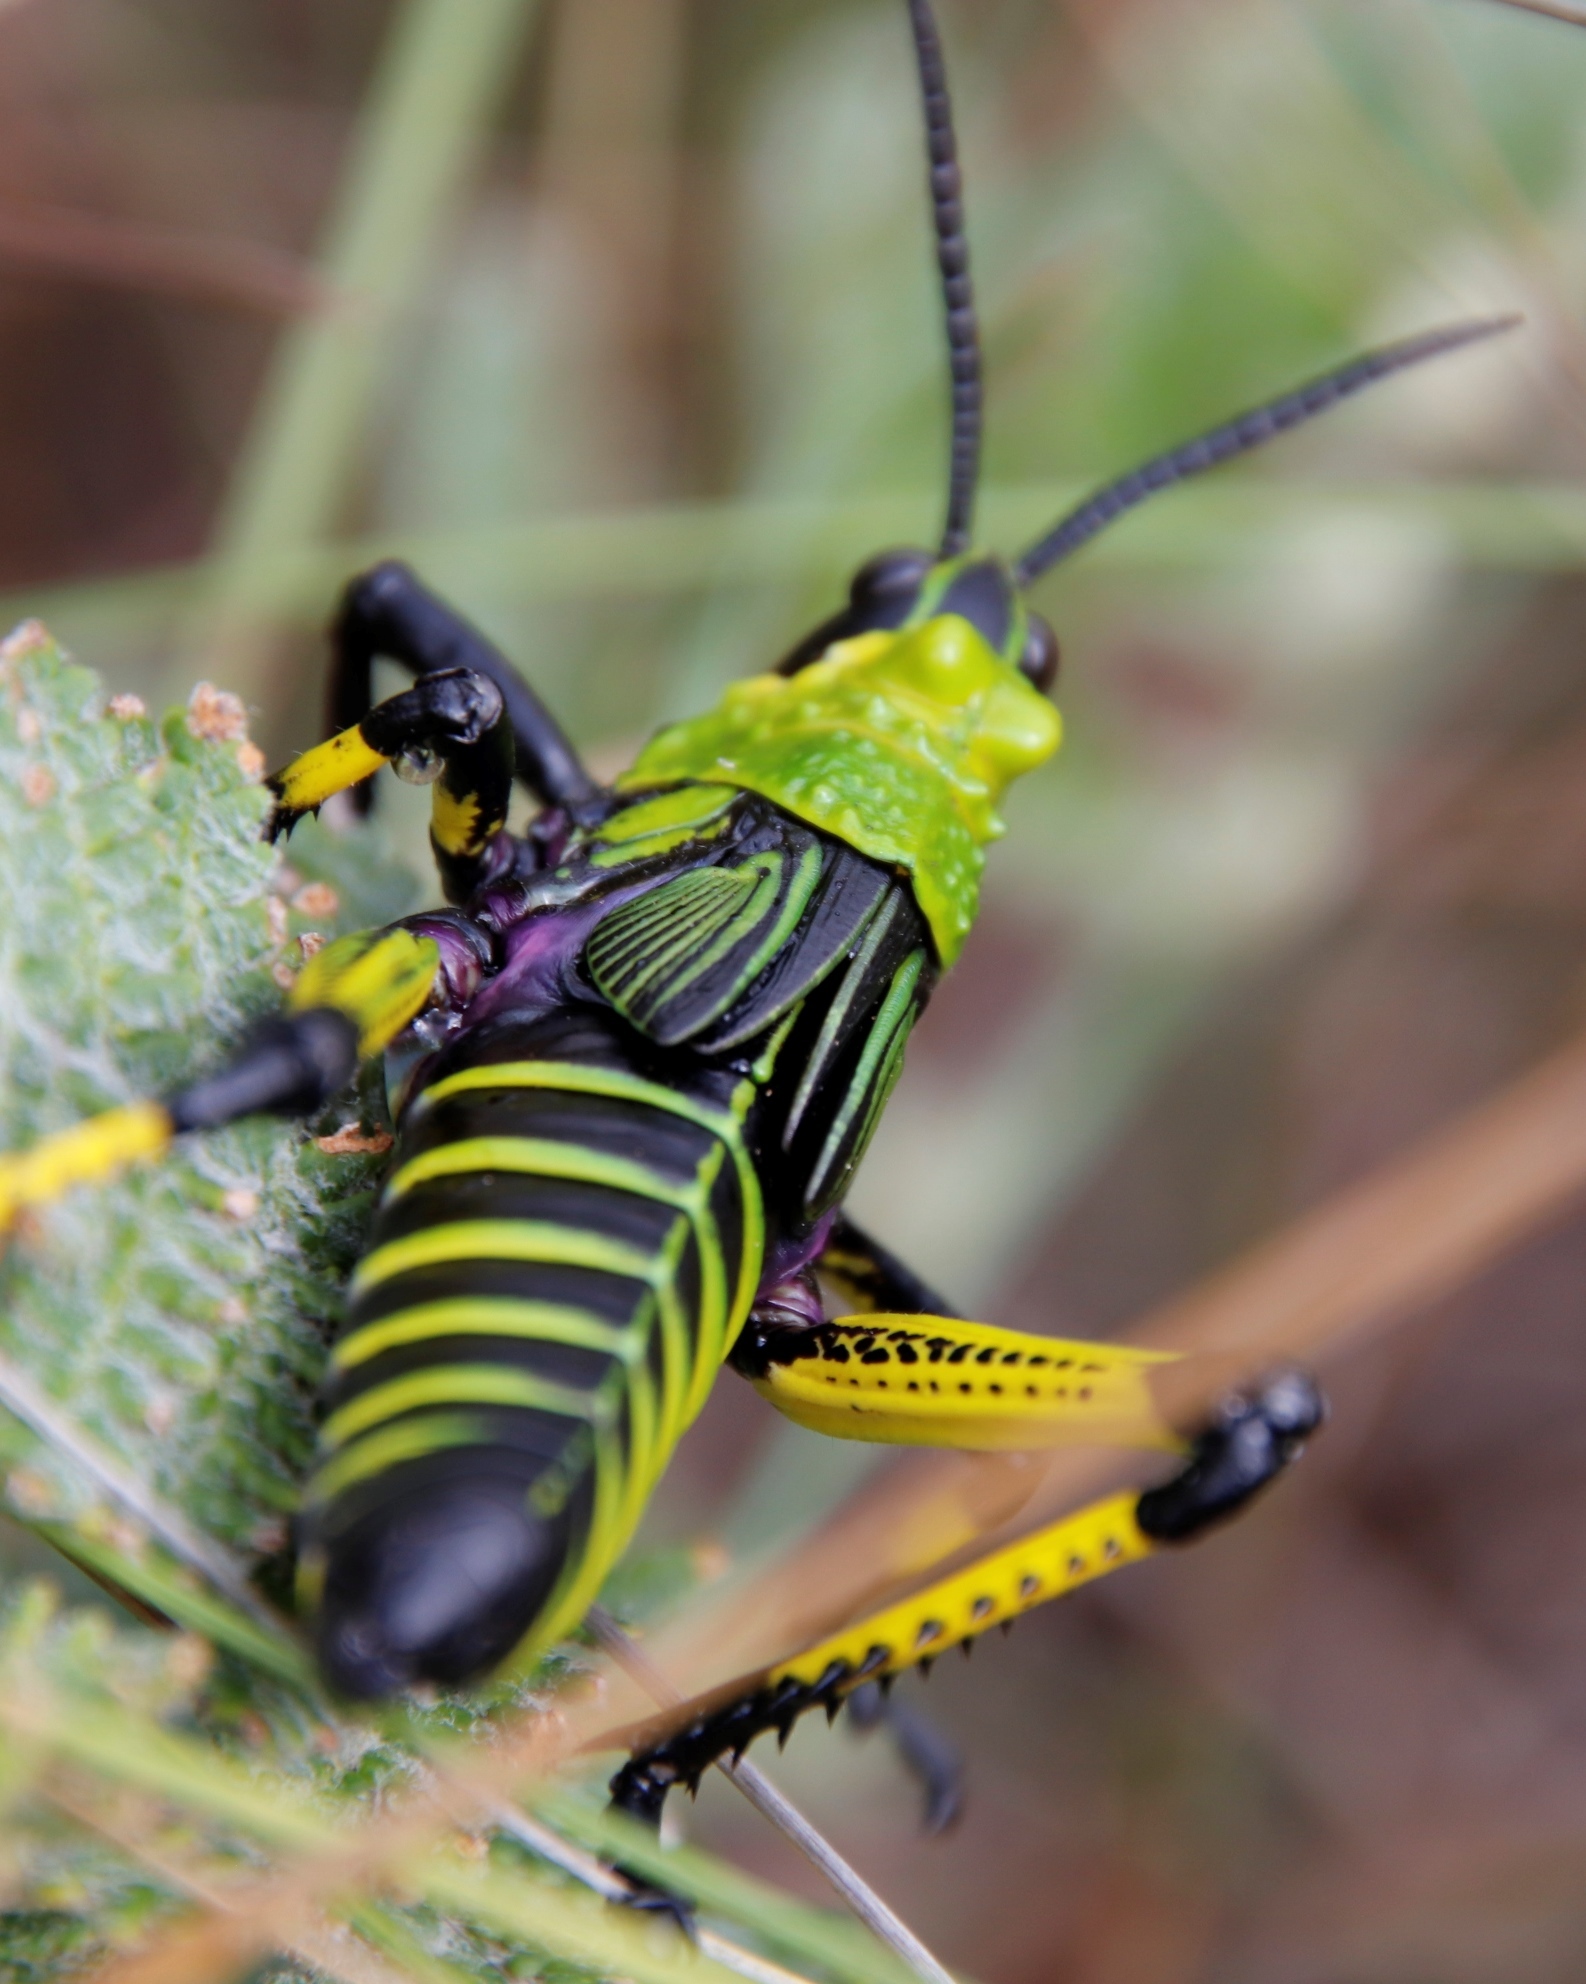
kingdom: Animalia
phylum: Arthropoda
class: Insecta
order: Orthoptera
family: Pyrgomorphidae
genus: Phymateus
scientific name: Phymateus leprosus
